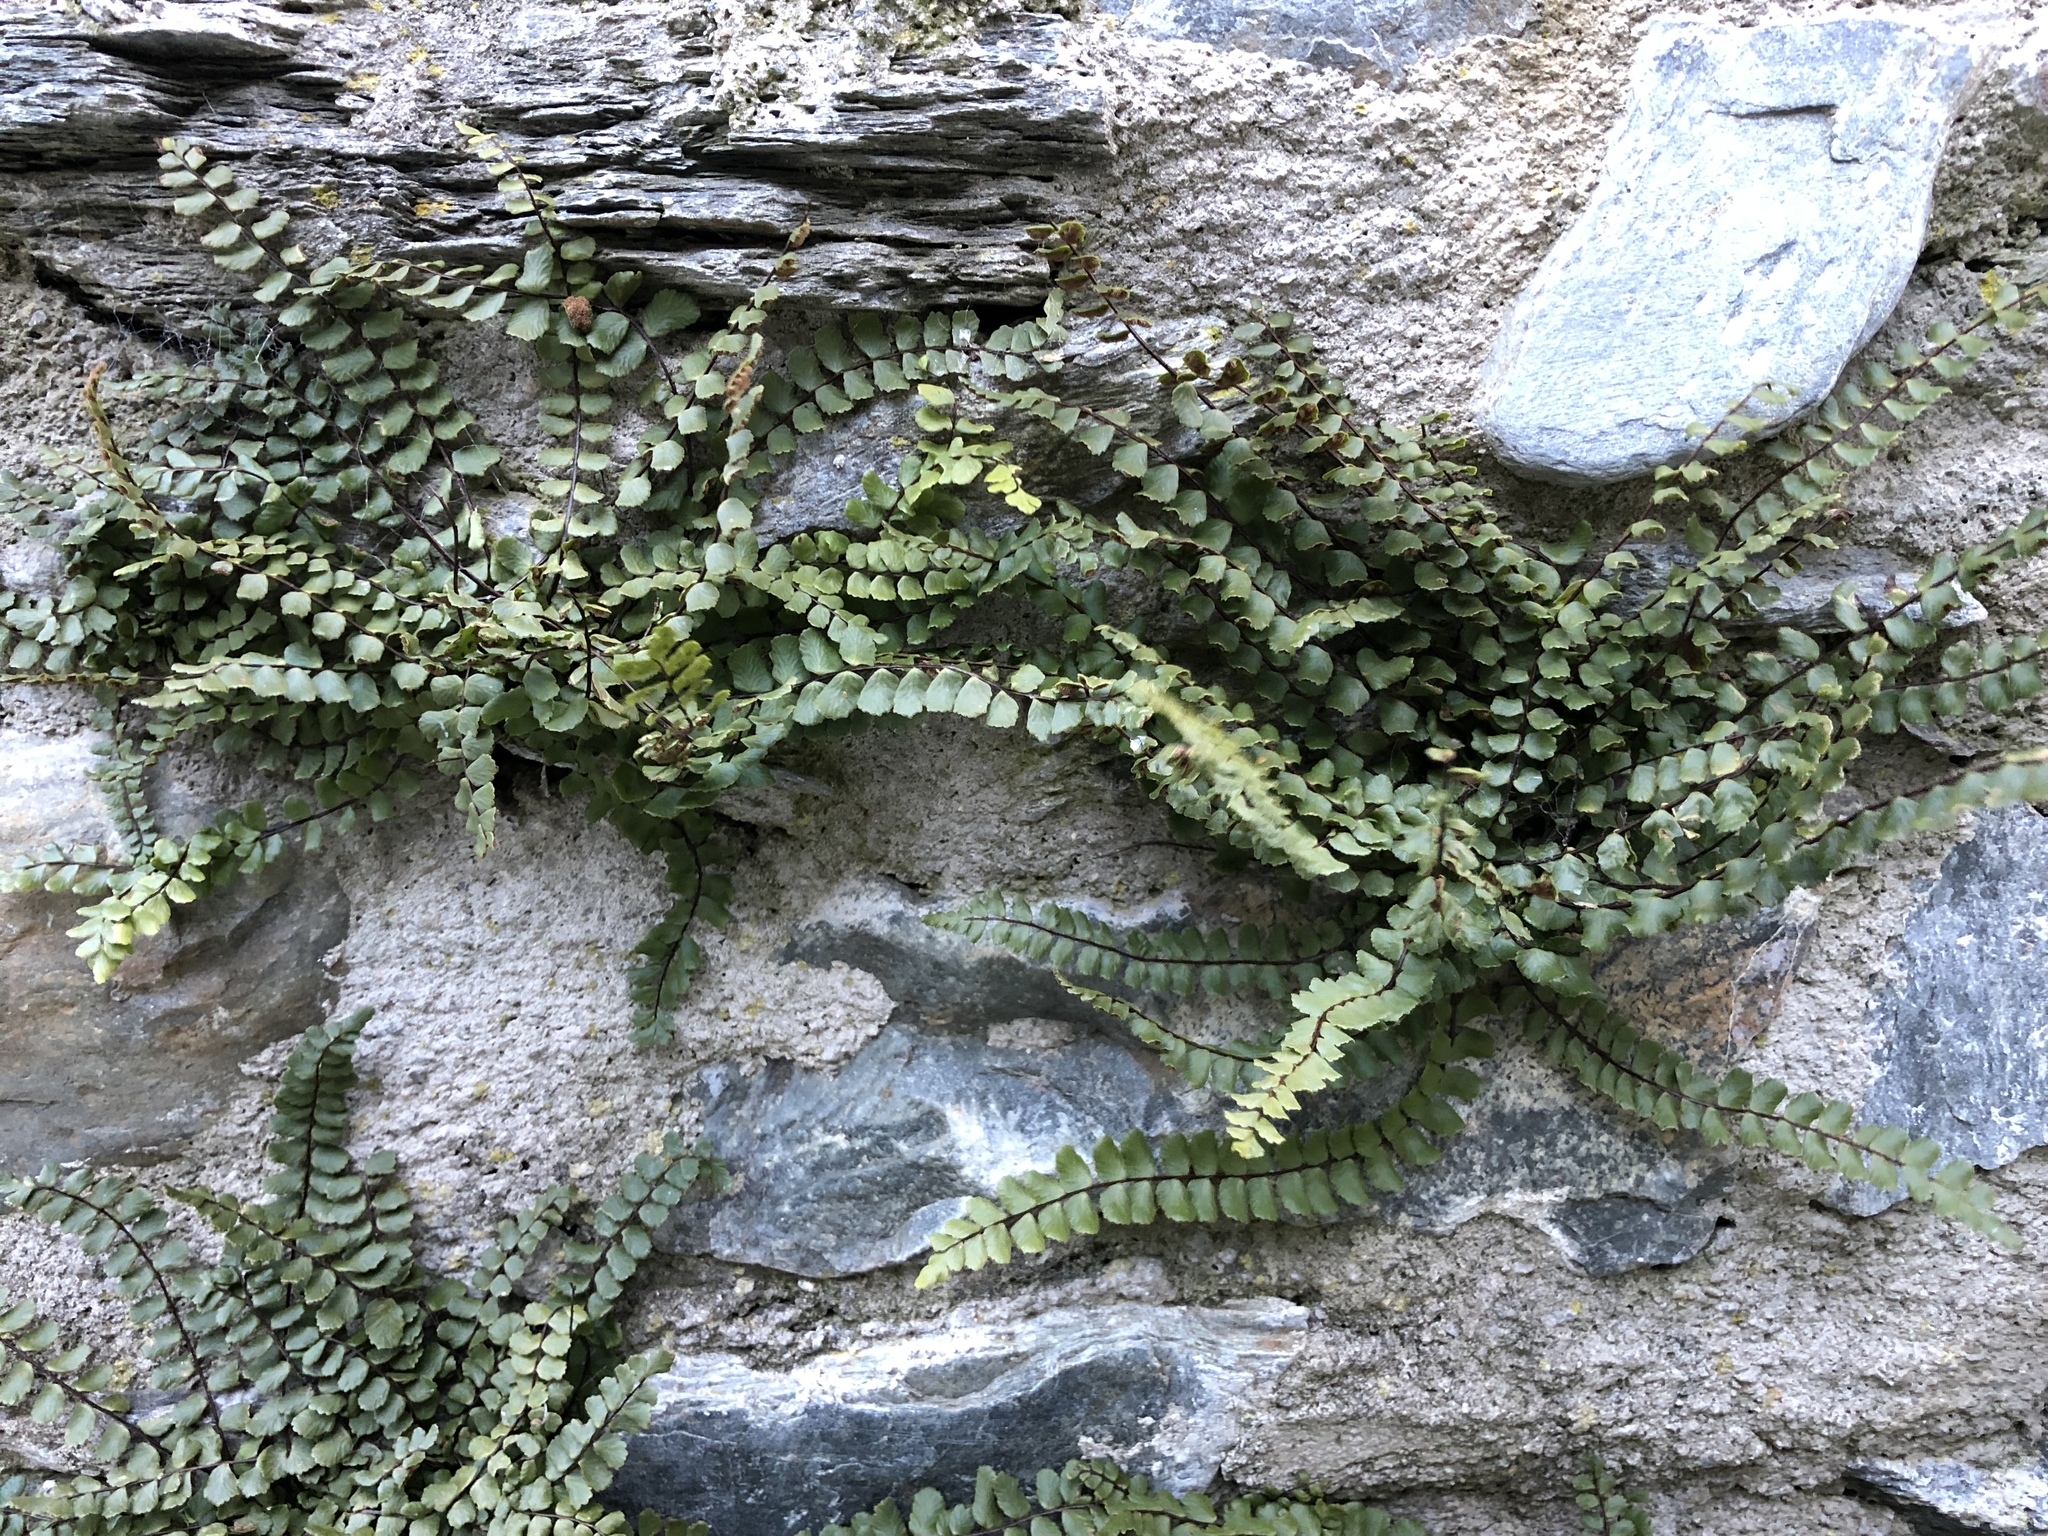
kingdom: Plantae
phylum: Tracheophyta
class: Polypodiopsida
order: Polypodiales
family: Aspleniaceae
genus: Asplenium
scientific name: Asplenium trichomanes
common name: Maidenhair spleenwort
